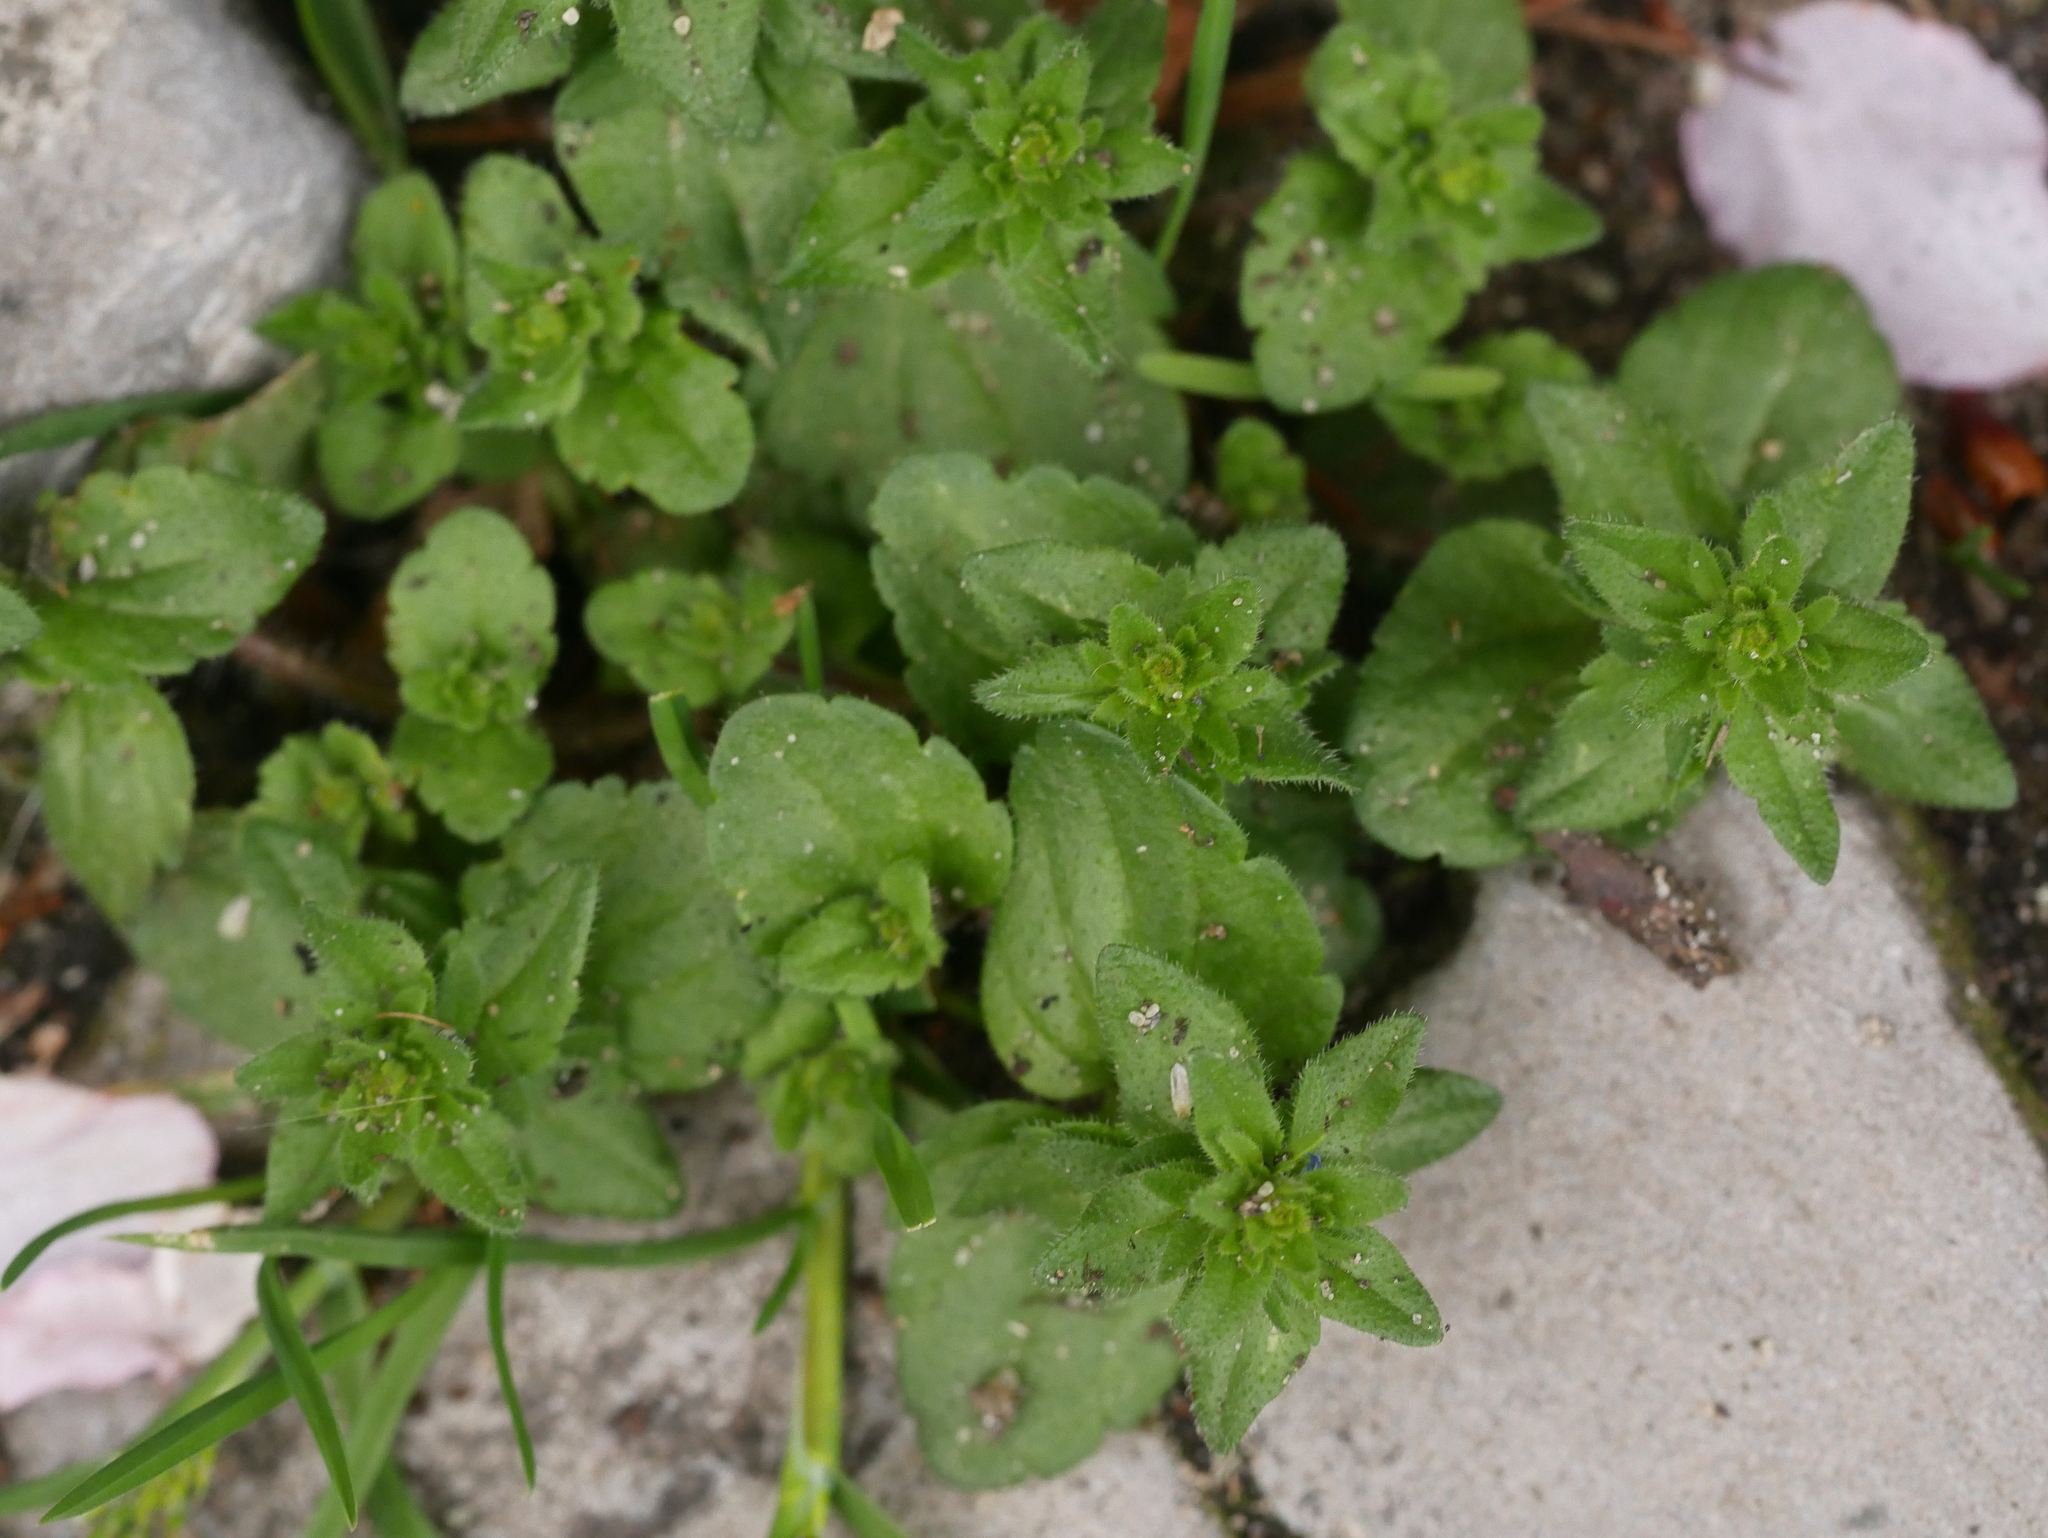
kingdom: Plantae
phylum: Tracheophyta
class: Magnoliopsida
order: Lamiales
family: Plantaginaceae
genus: Veronica
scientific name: Veronica arvensis
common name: Corn speedwell
